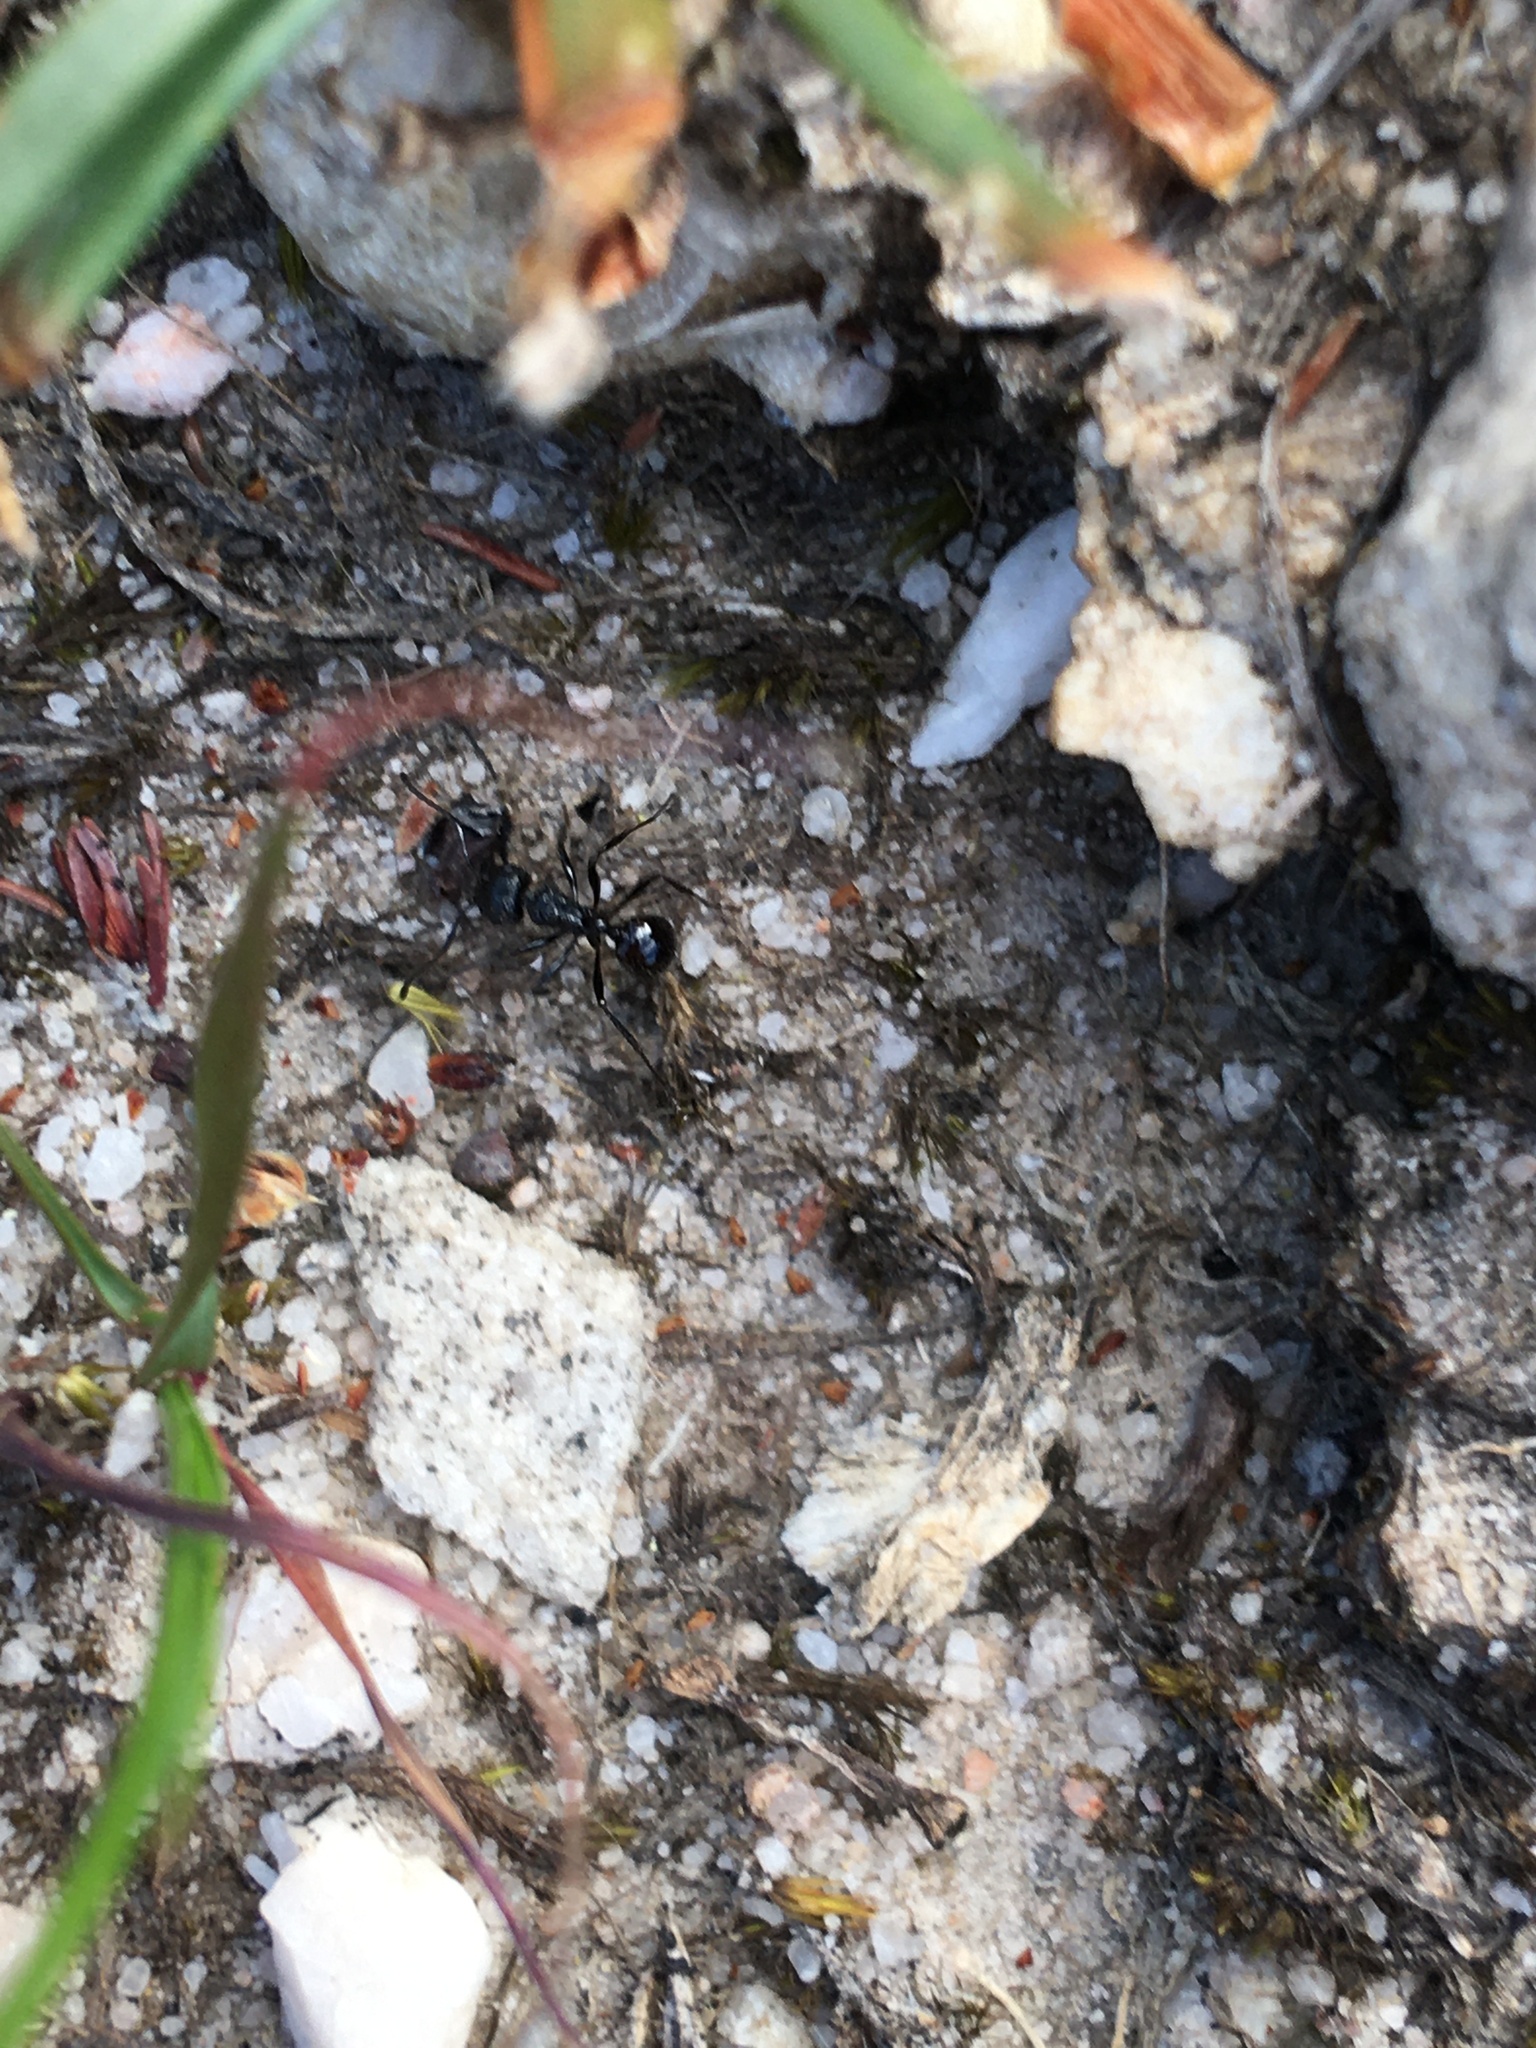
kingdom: Animalia
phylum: Arthropoda
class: Insecta
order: Hymenoptera
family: Formicidae
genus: Myrmicaria
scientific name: Myrmicaria nigra
